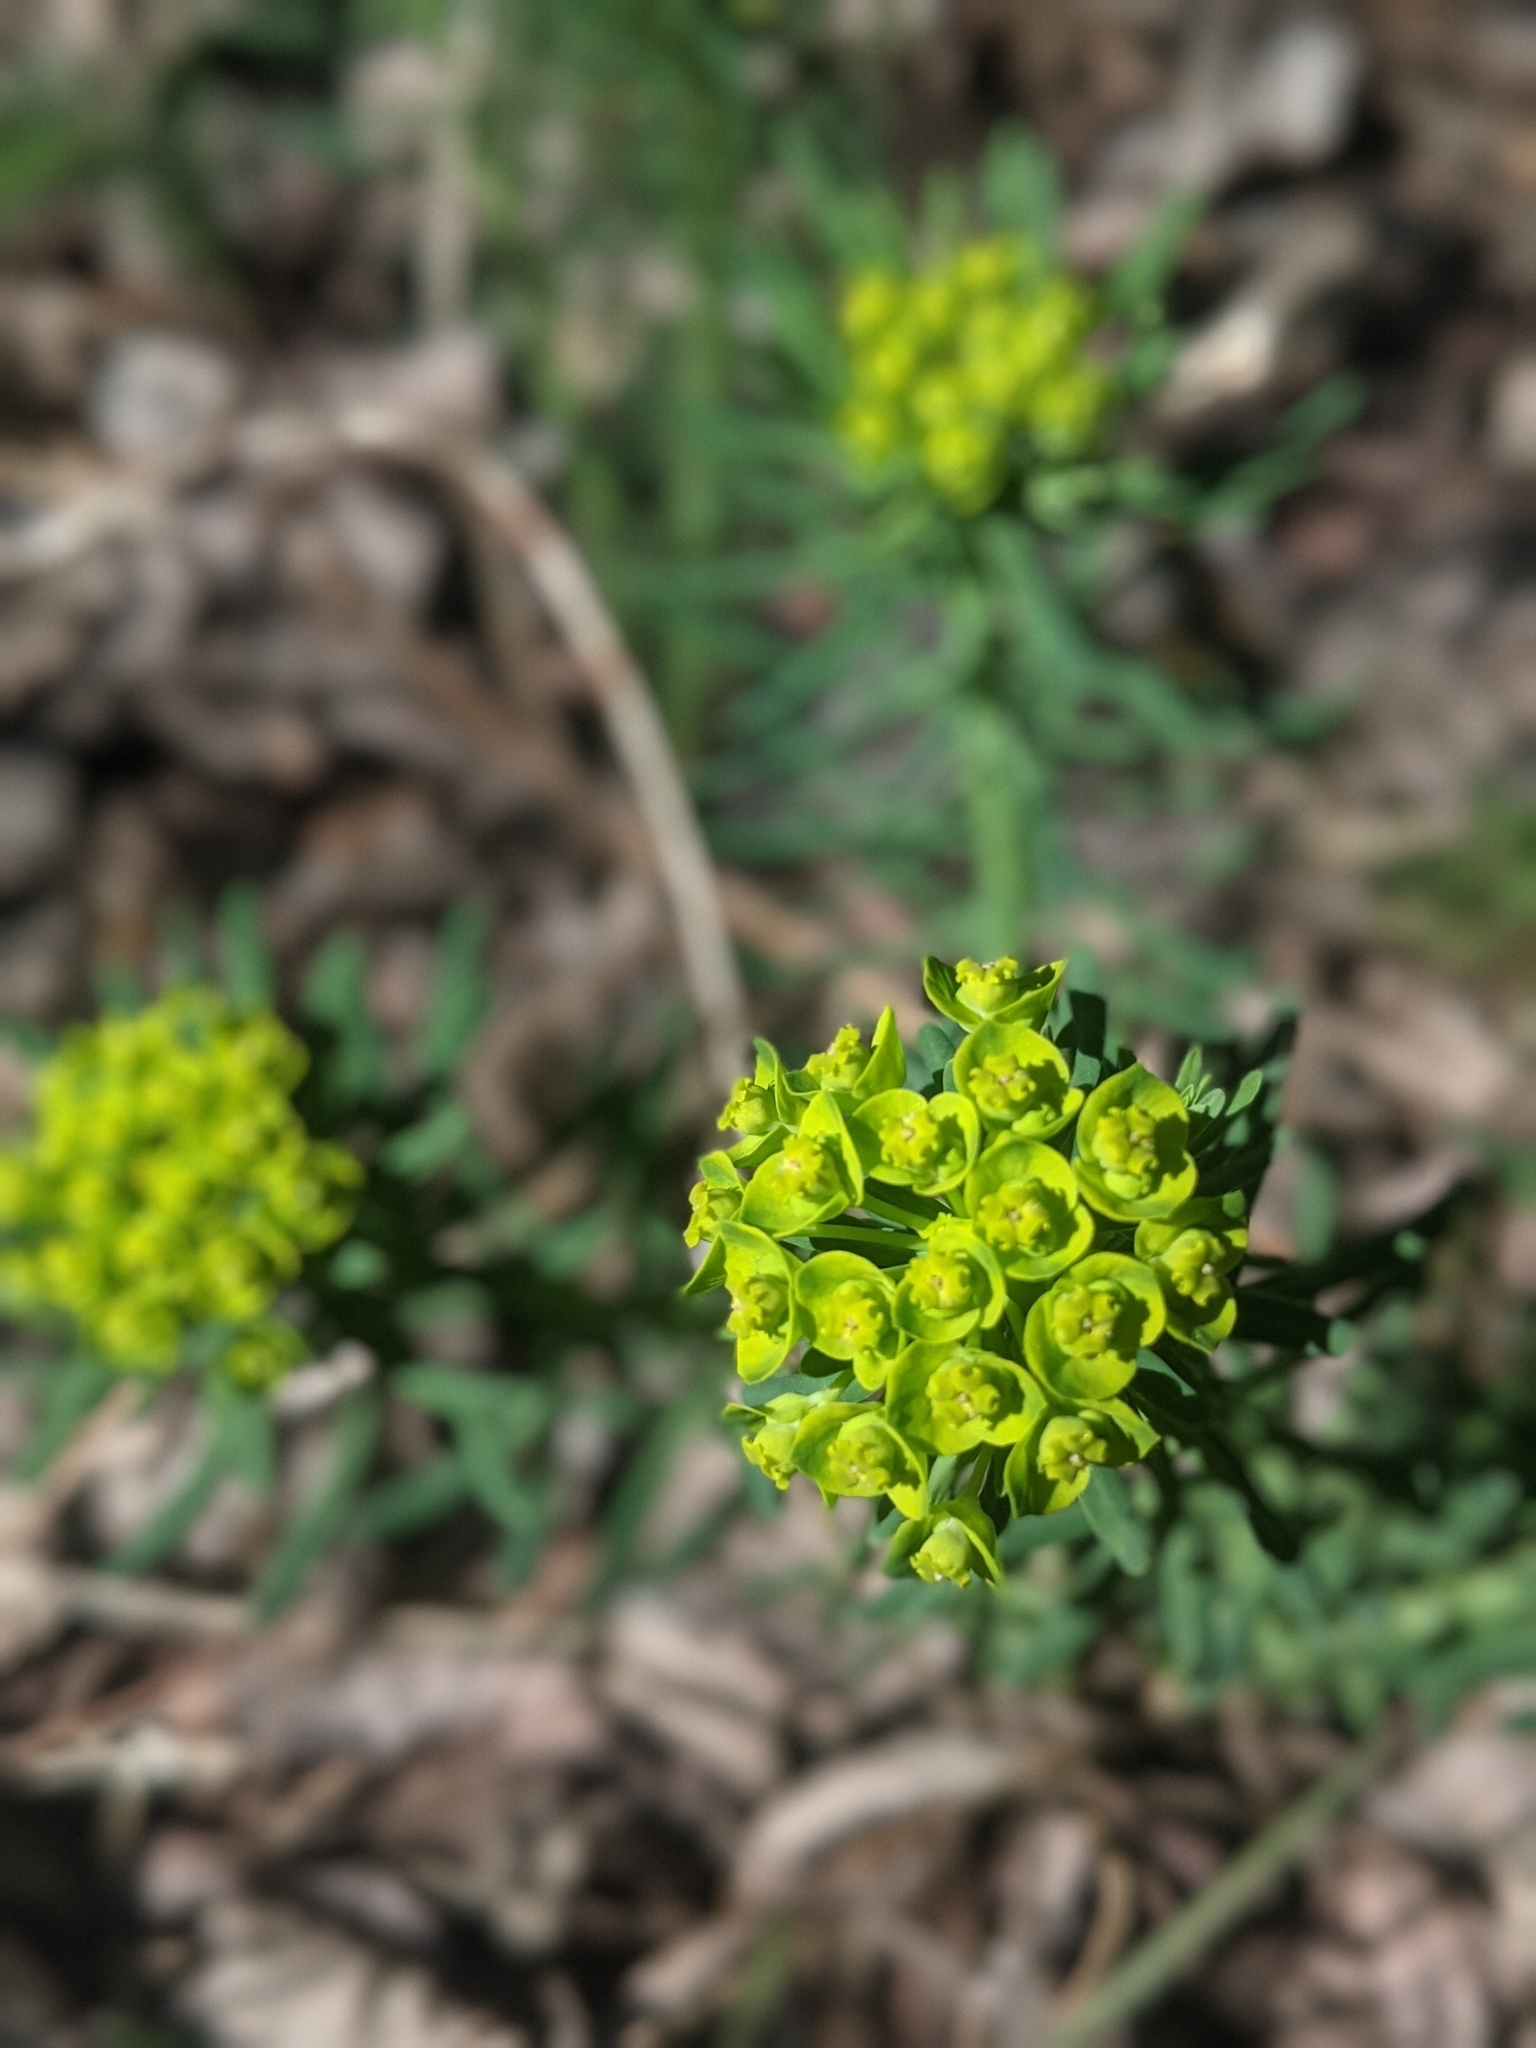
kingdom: Plantae
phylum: Tracheophyta
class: Magnoliopsida
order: Malpighiales
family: Euphorbiaceae
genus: Euphorbia
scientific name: Euphorbia cyparissias
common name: Cypress spurge
